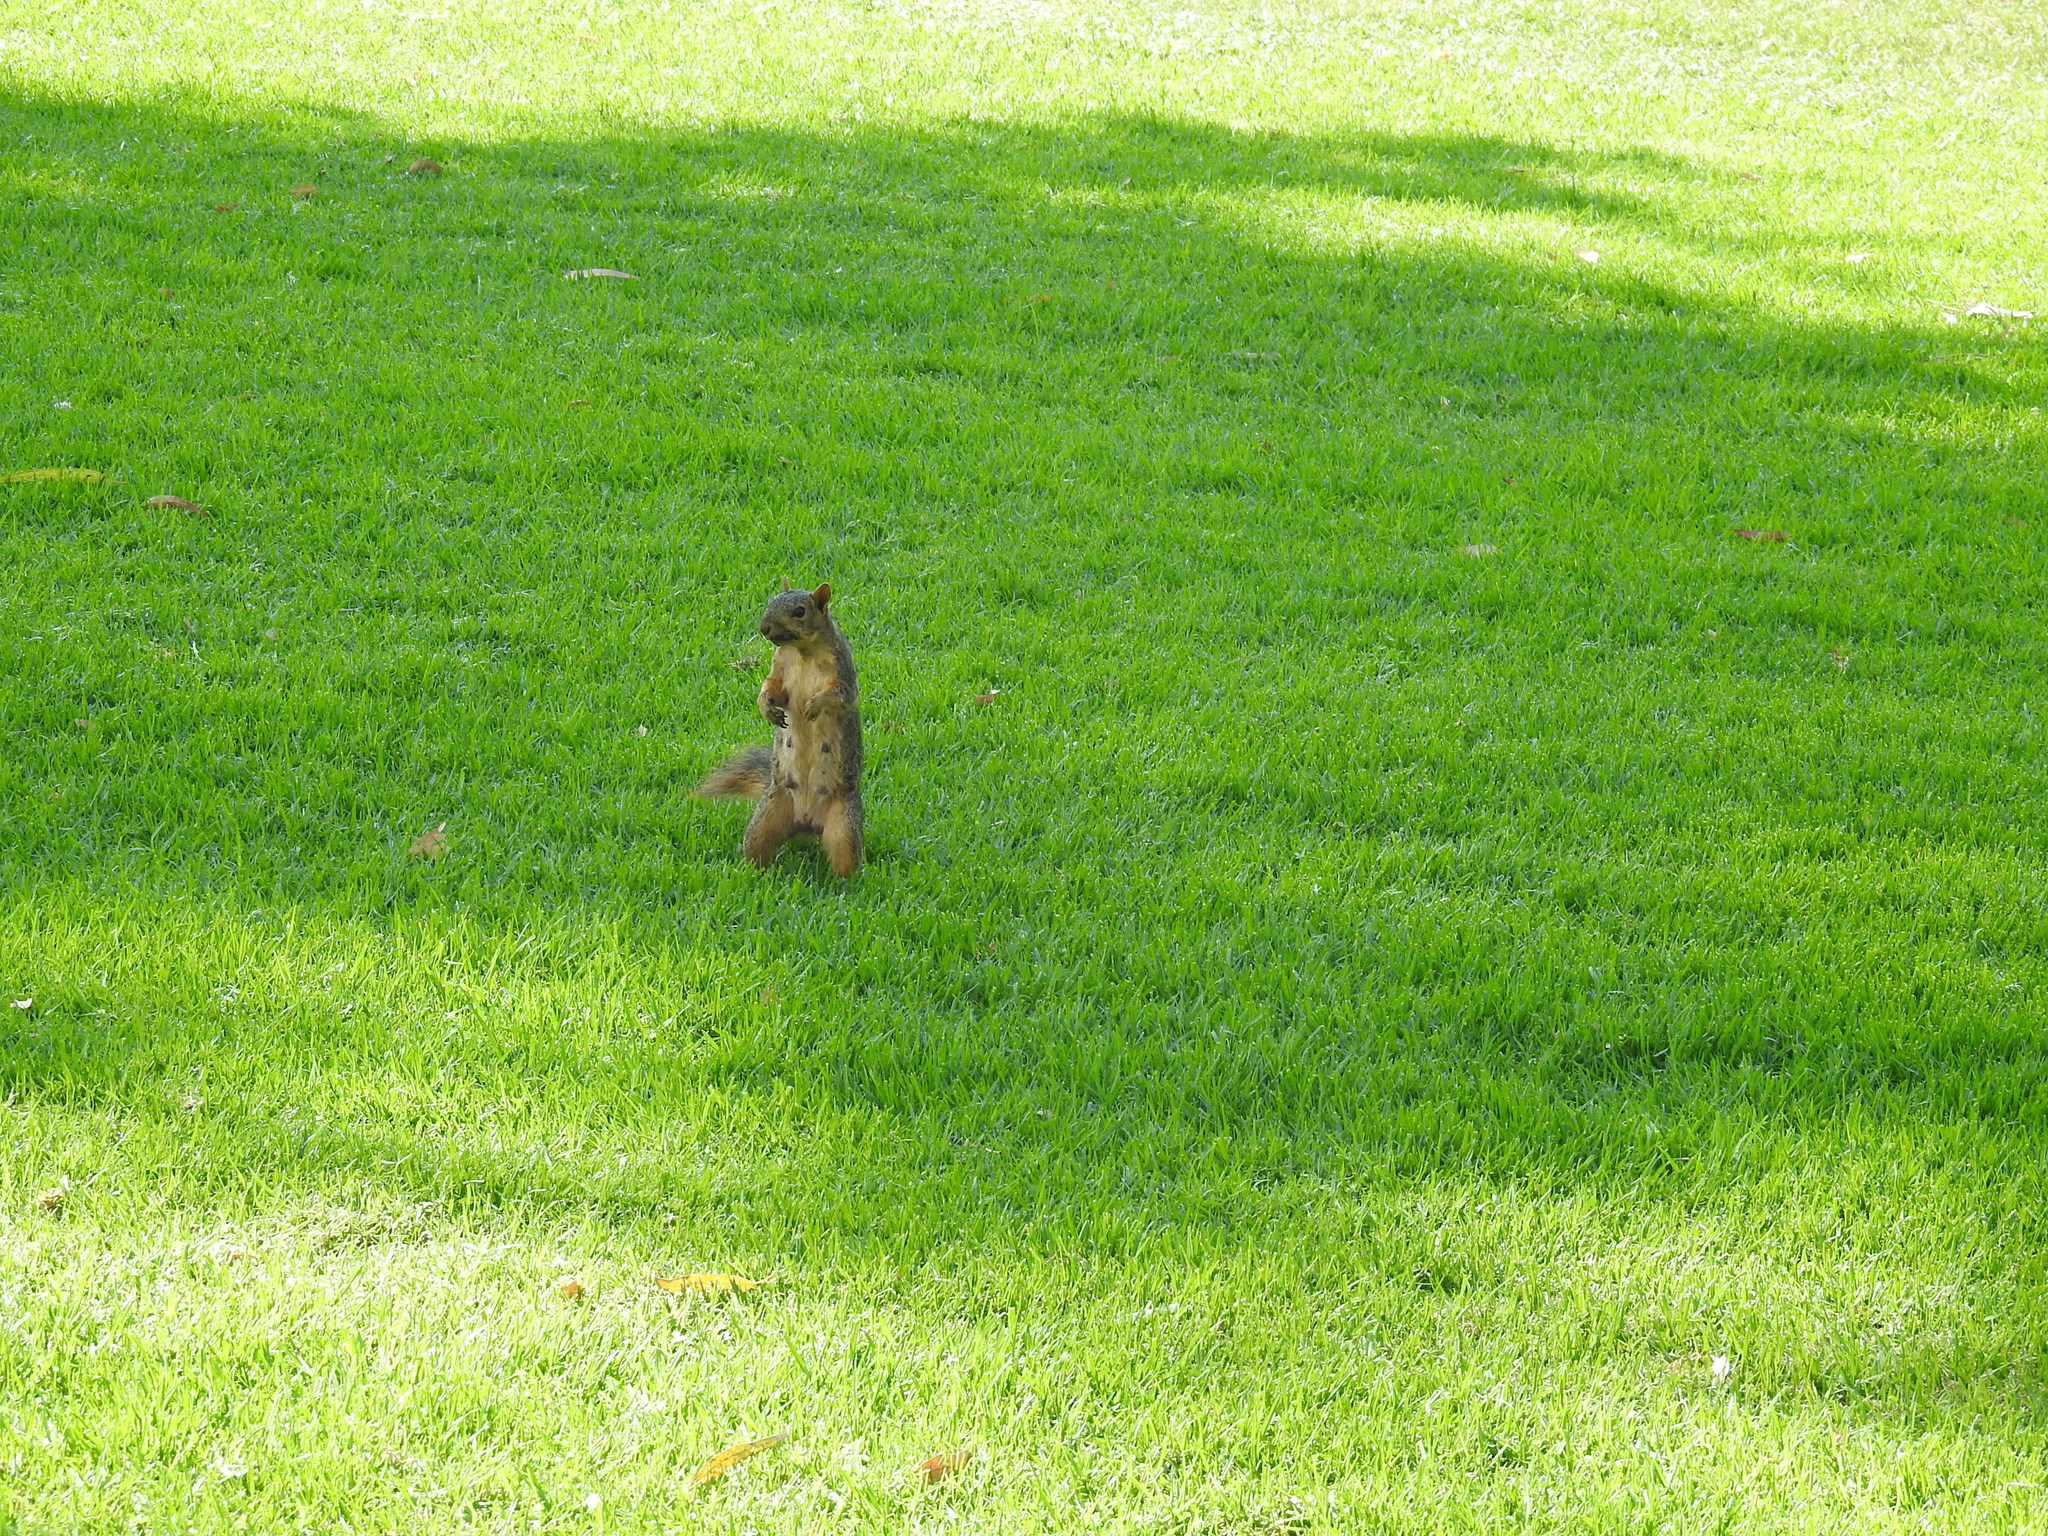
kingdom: Animalia
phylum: Chordata
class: Mammalia
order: Rodentia
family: Sciuridae
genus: Sciurus
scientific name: Sciurus niger
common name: Fox squirrel
